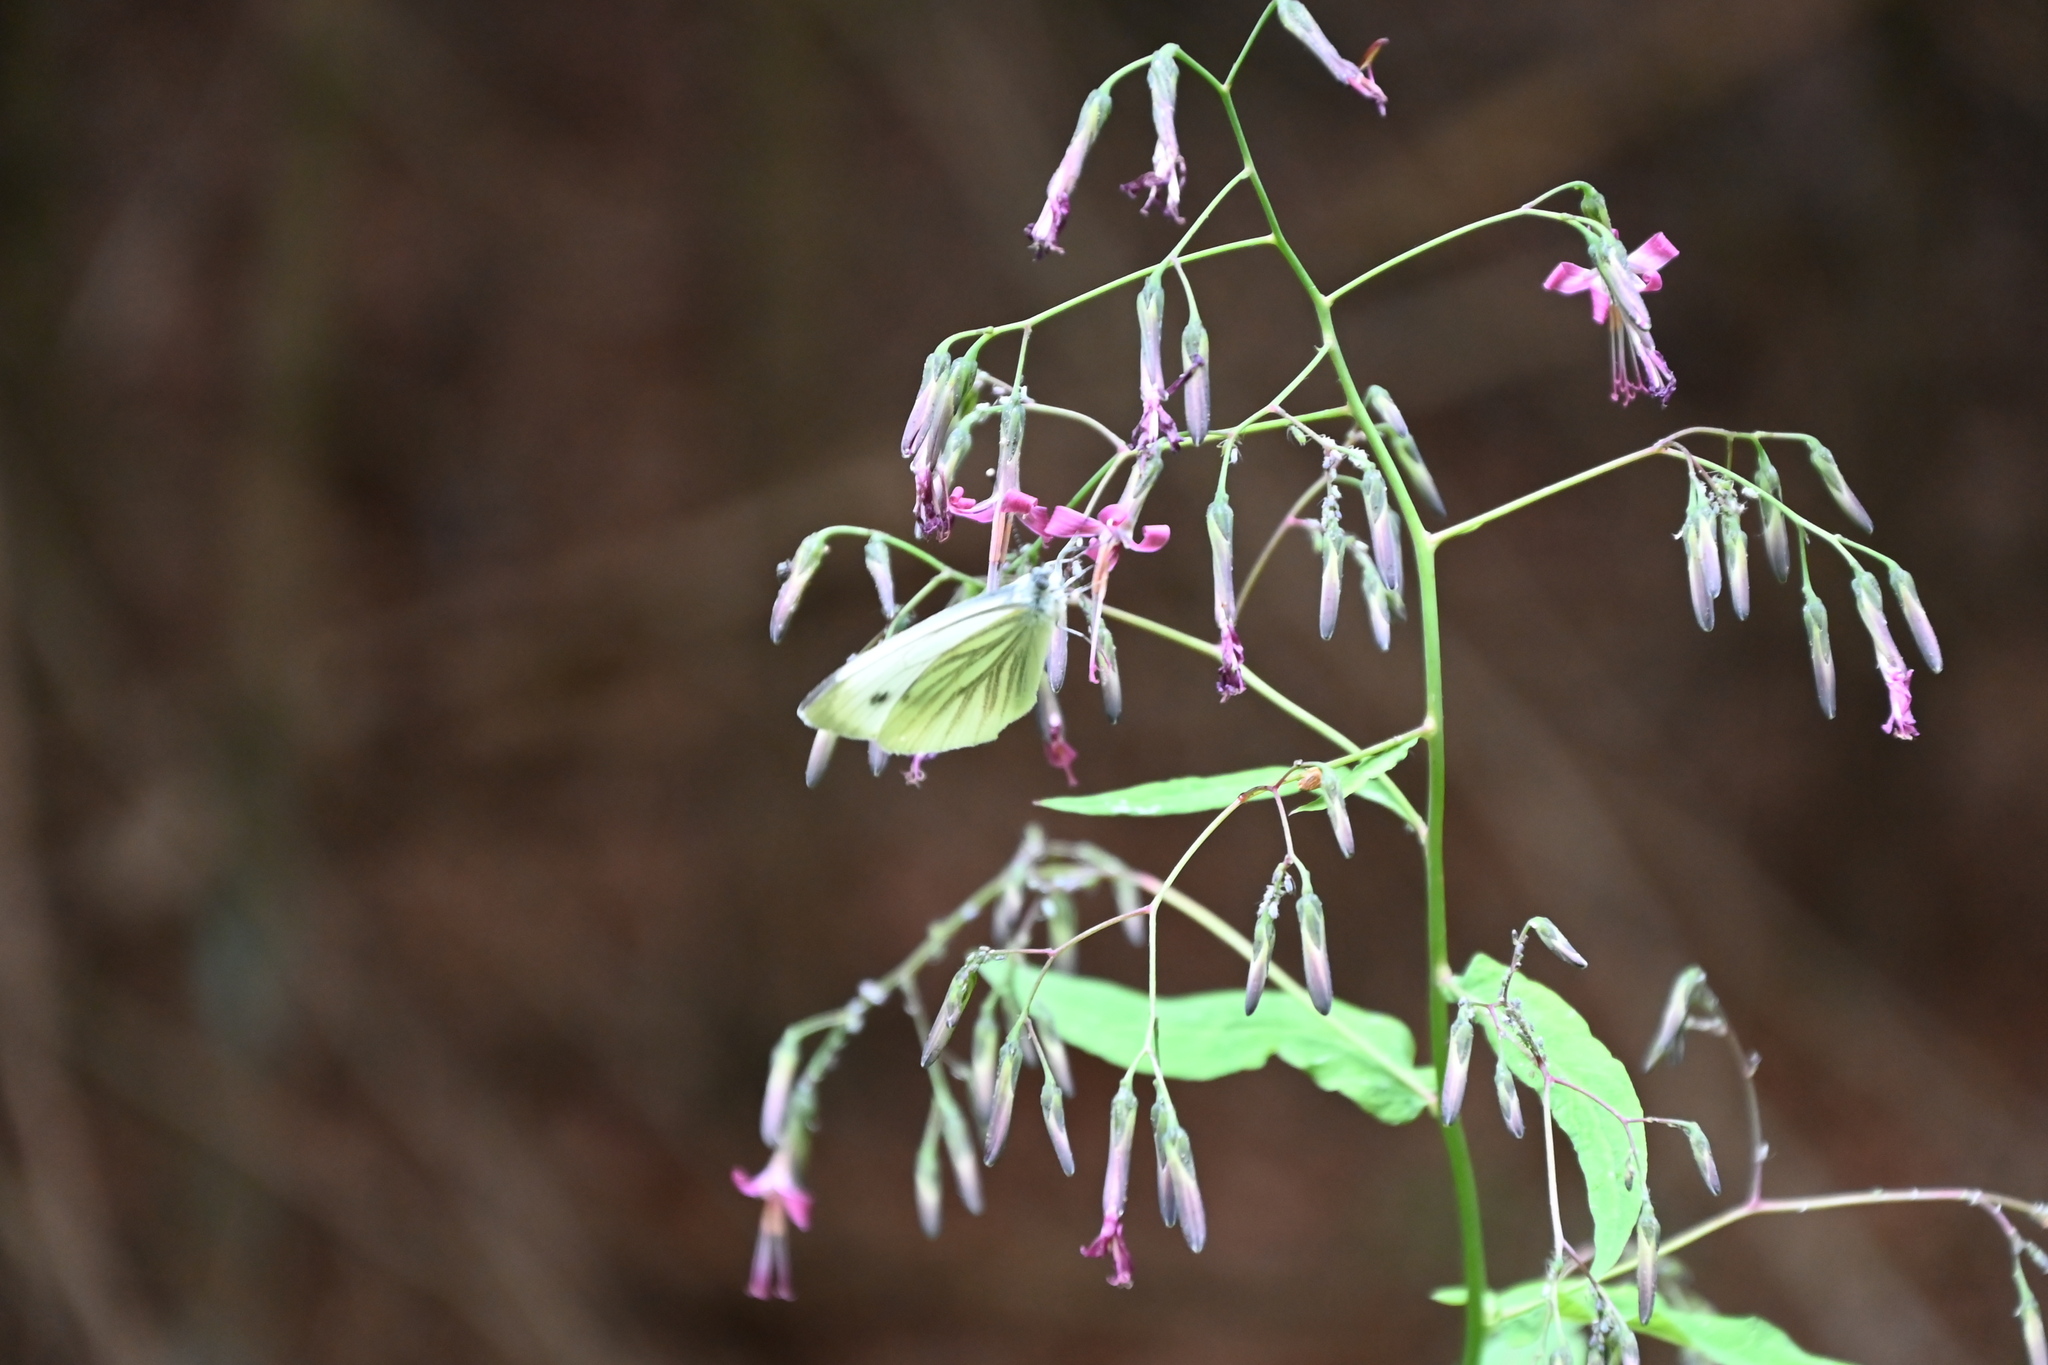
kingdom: Plantae
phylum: Tracheophyta
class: Magnoliopsida
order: Asterales
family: Asteraceae
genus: Prenanthes
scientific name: Prenanthes purpurea
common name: Purple lettuce
